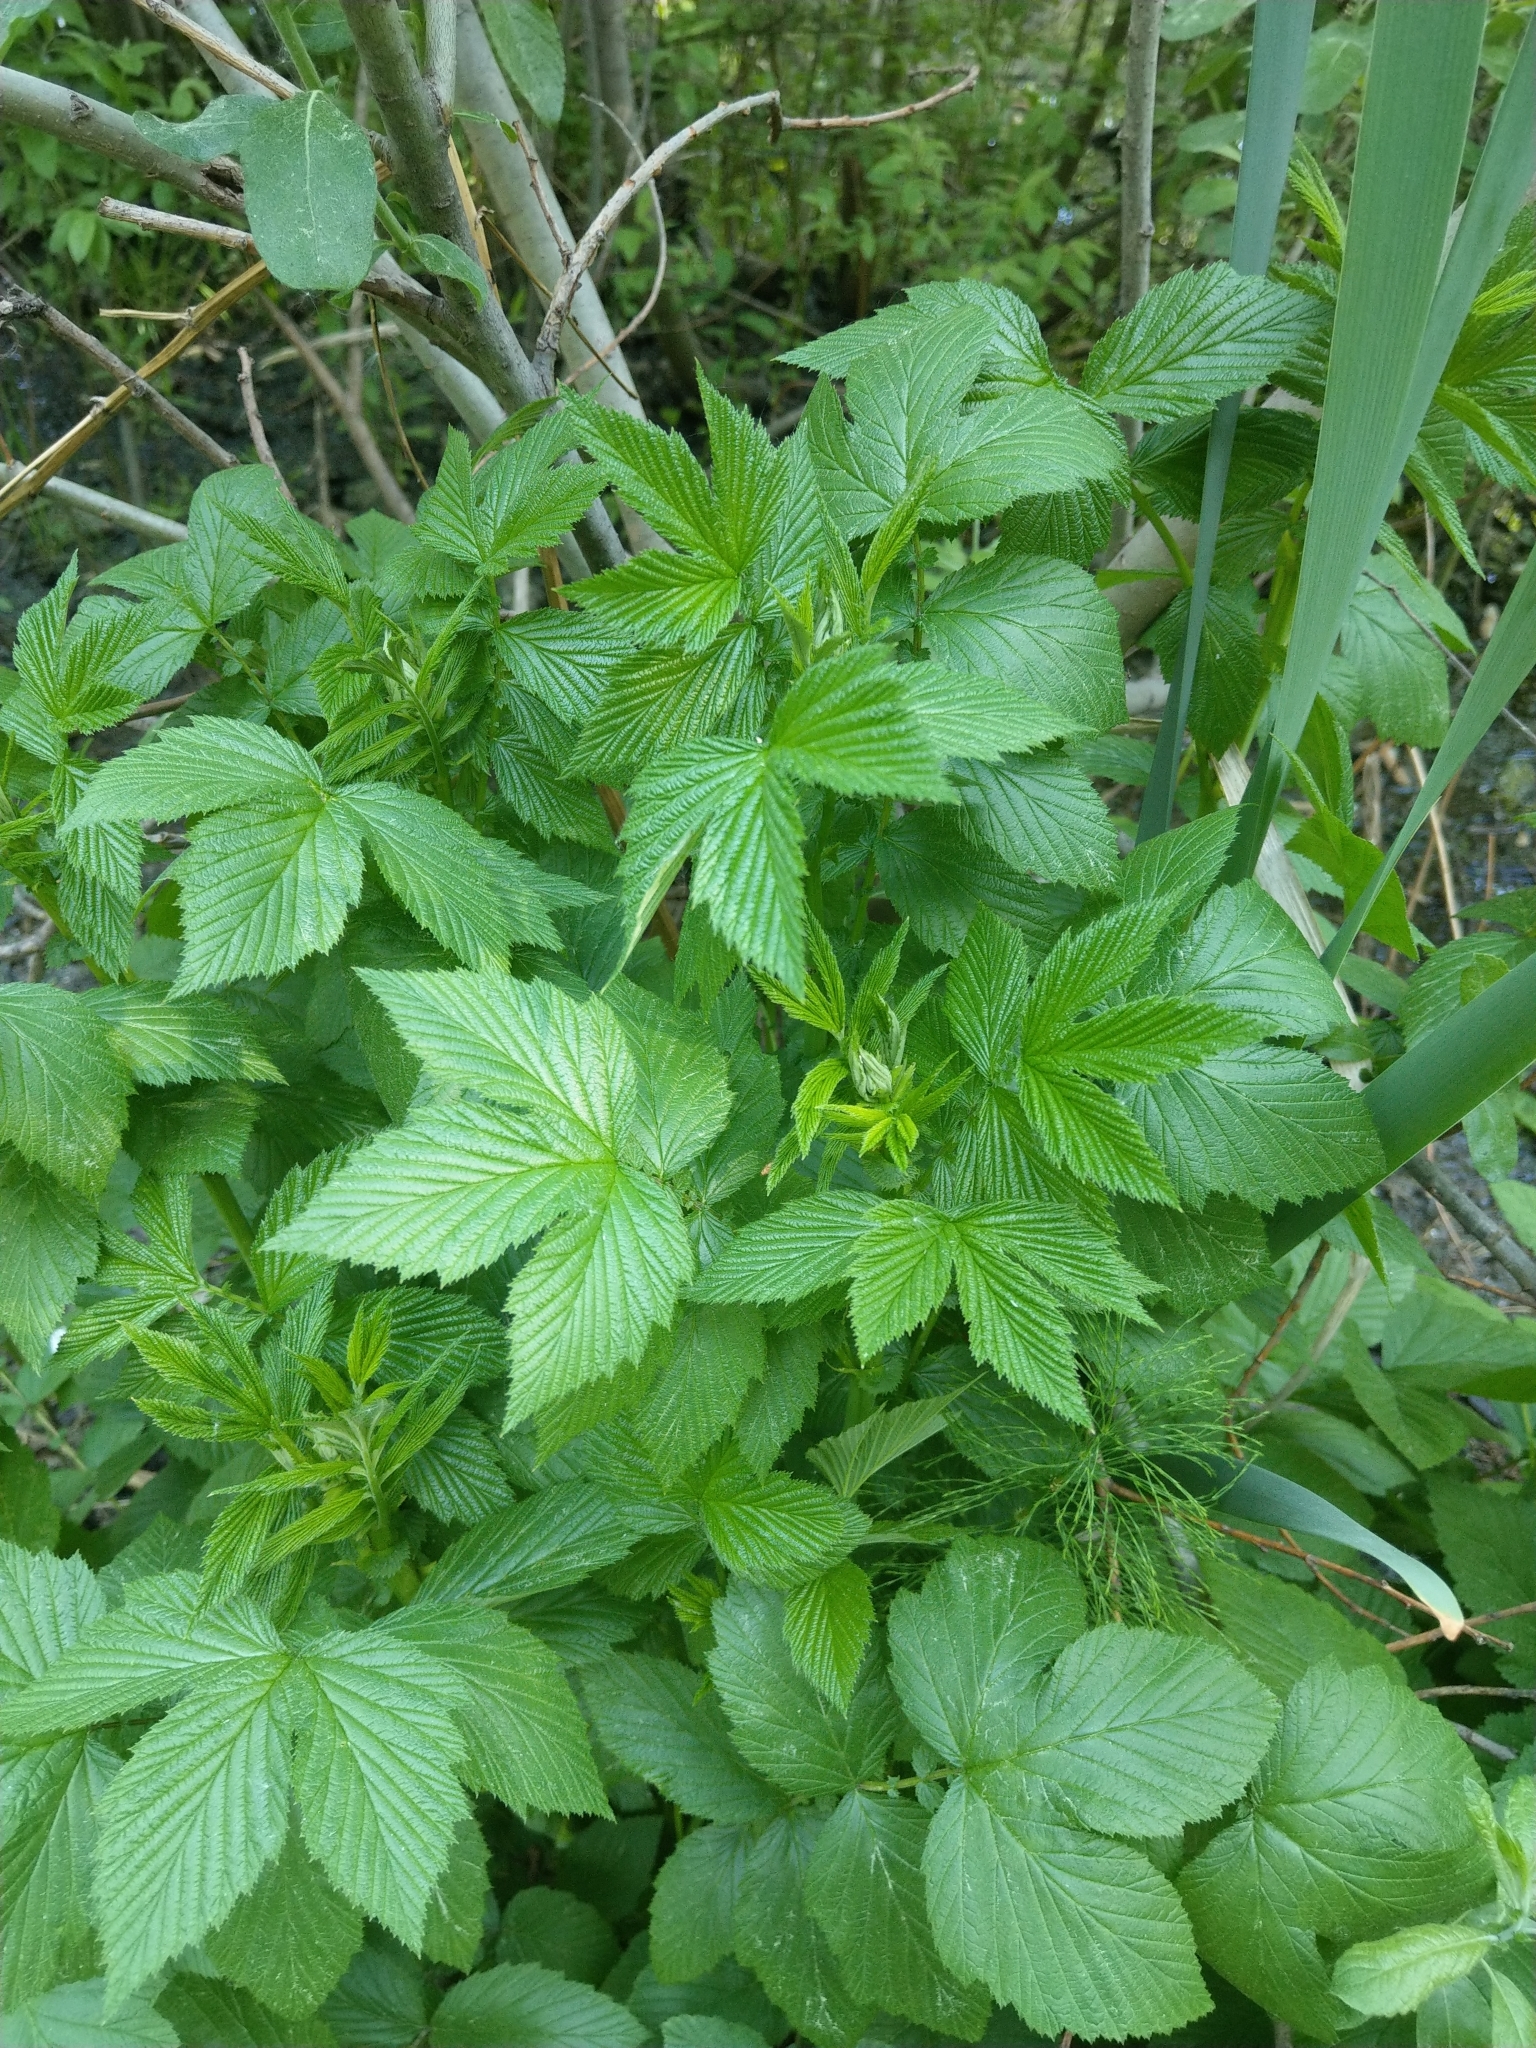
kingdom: Plantae
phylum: Tracheophyta
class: Magnoliopsida
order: Rosales
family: Rosaceae
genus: Filipendula
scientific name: Filipendula ulmaria
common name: Meadowsweet
